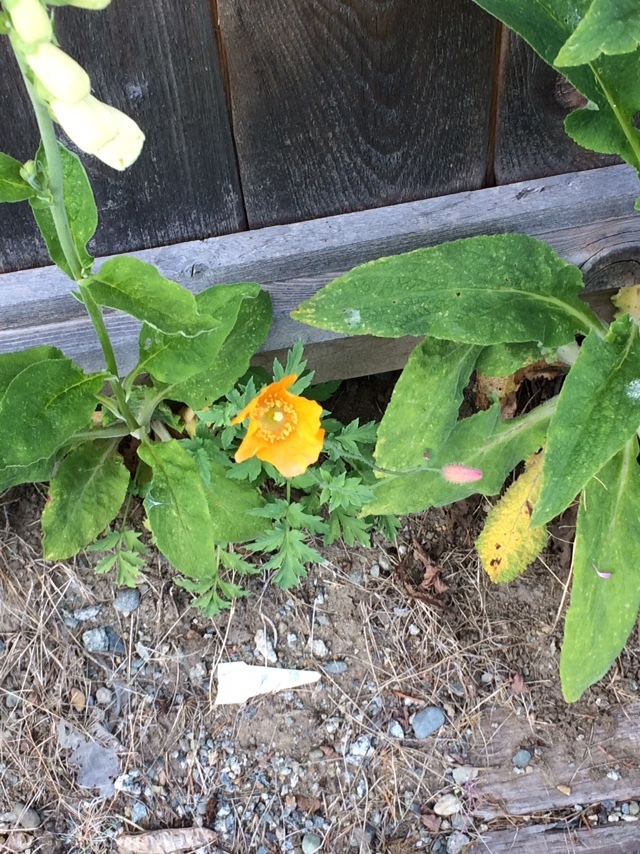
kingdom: Plantae
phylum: Tracheophyta
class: Magnoliopsida
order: Ranunculales
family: Papaveraceae
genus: Papaver
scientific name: Papaver cambricum
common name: Poppy
